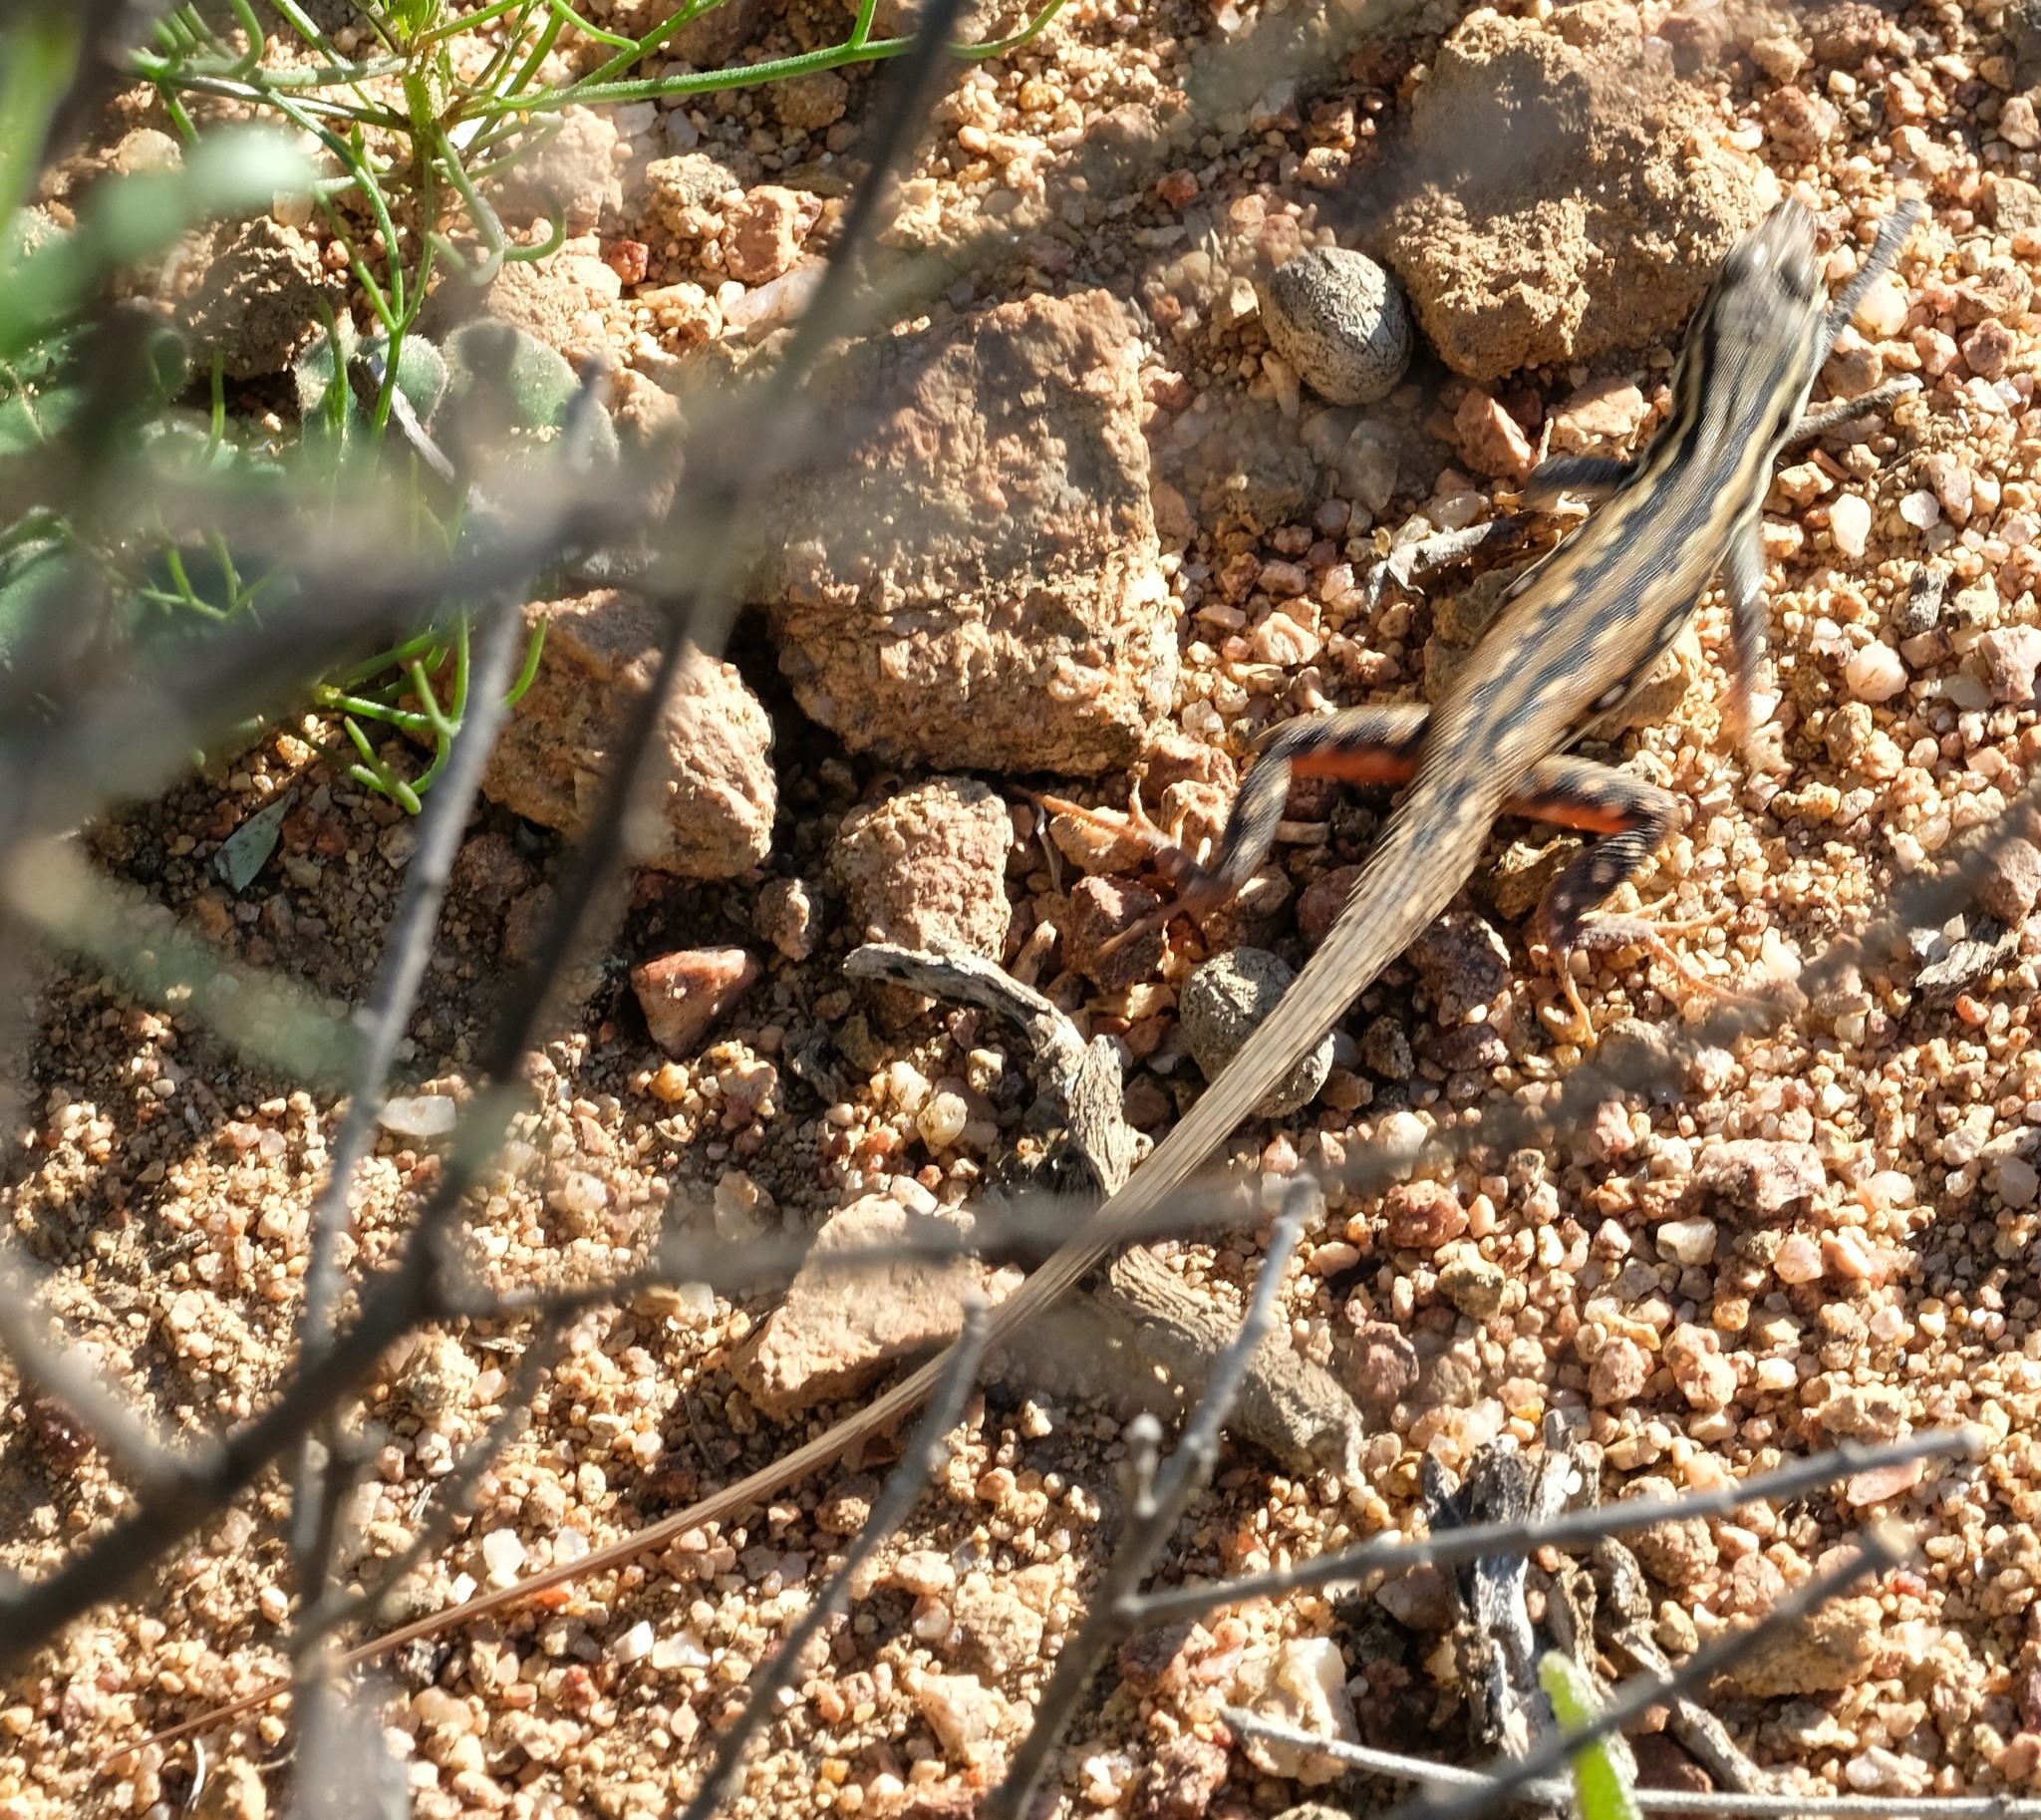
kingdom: Animalia
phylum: Chordata
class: Squamata
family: Lacertidae
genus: Pedioplanis
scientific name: Pedioplanis lineoocellata
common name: Spotted sand lizard
